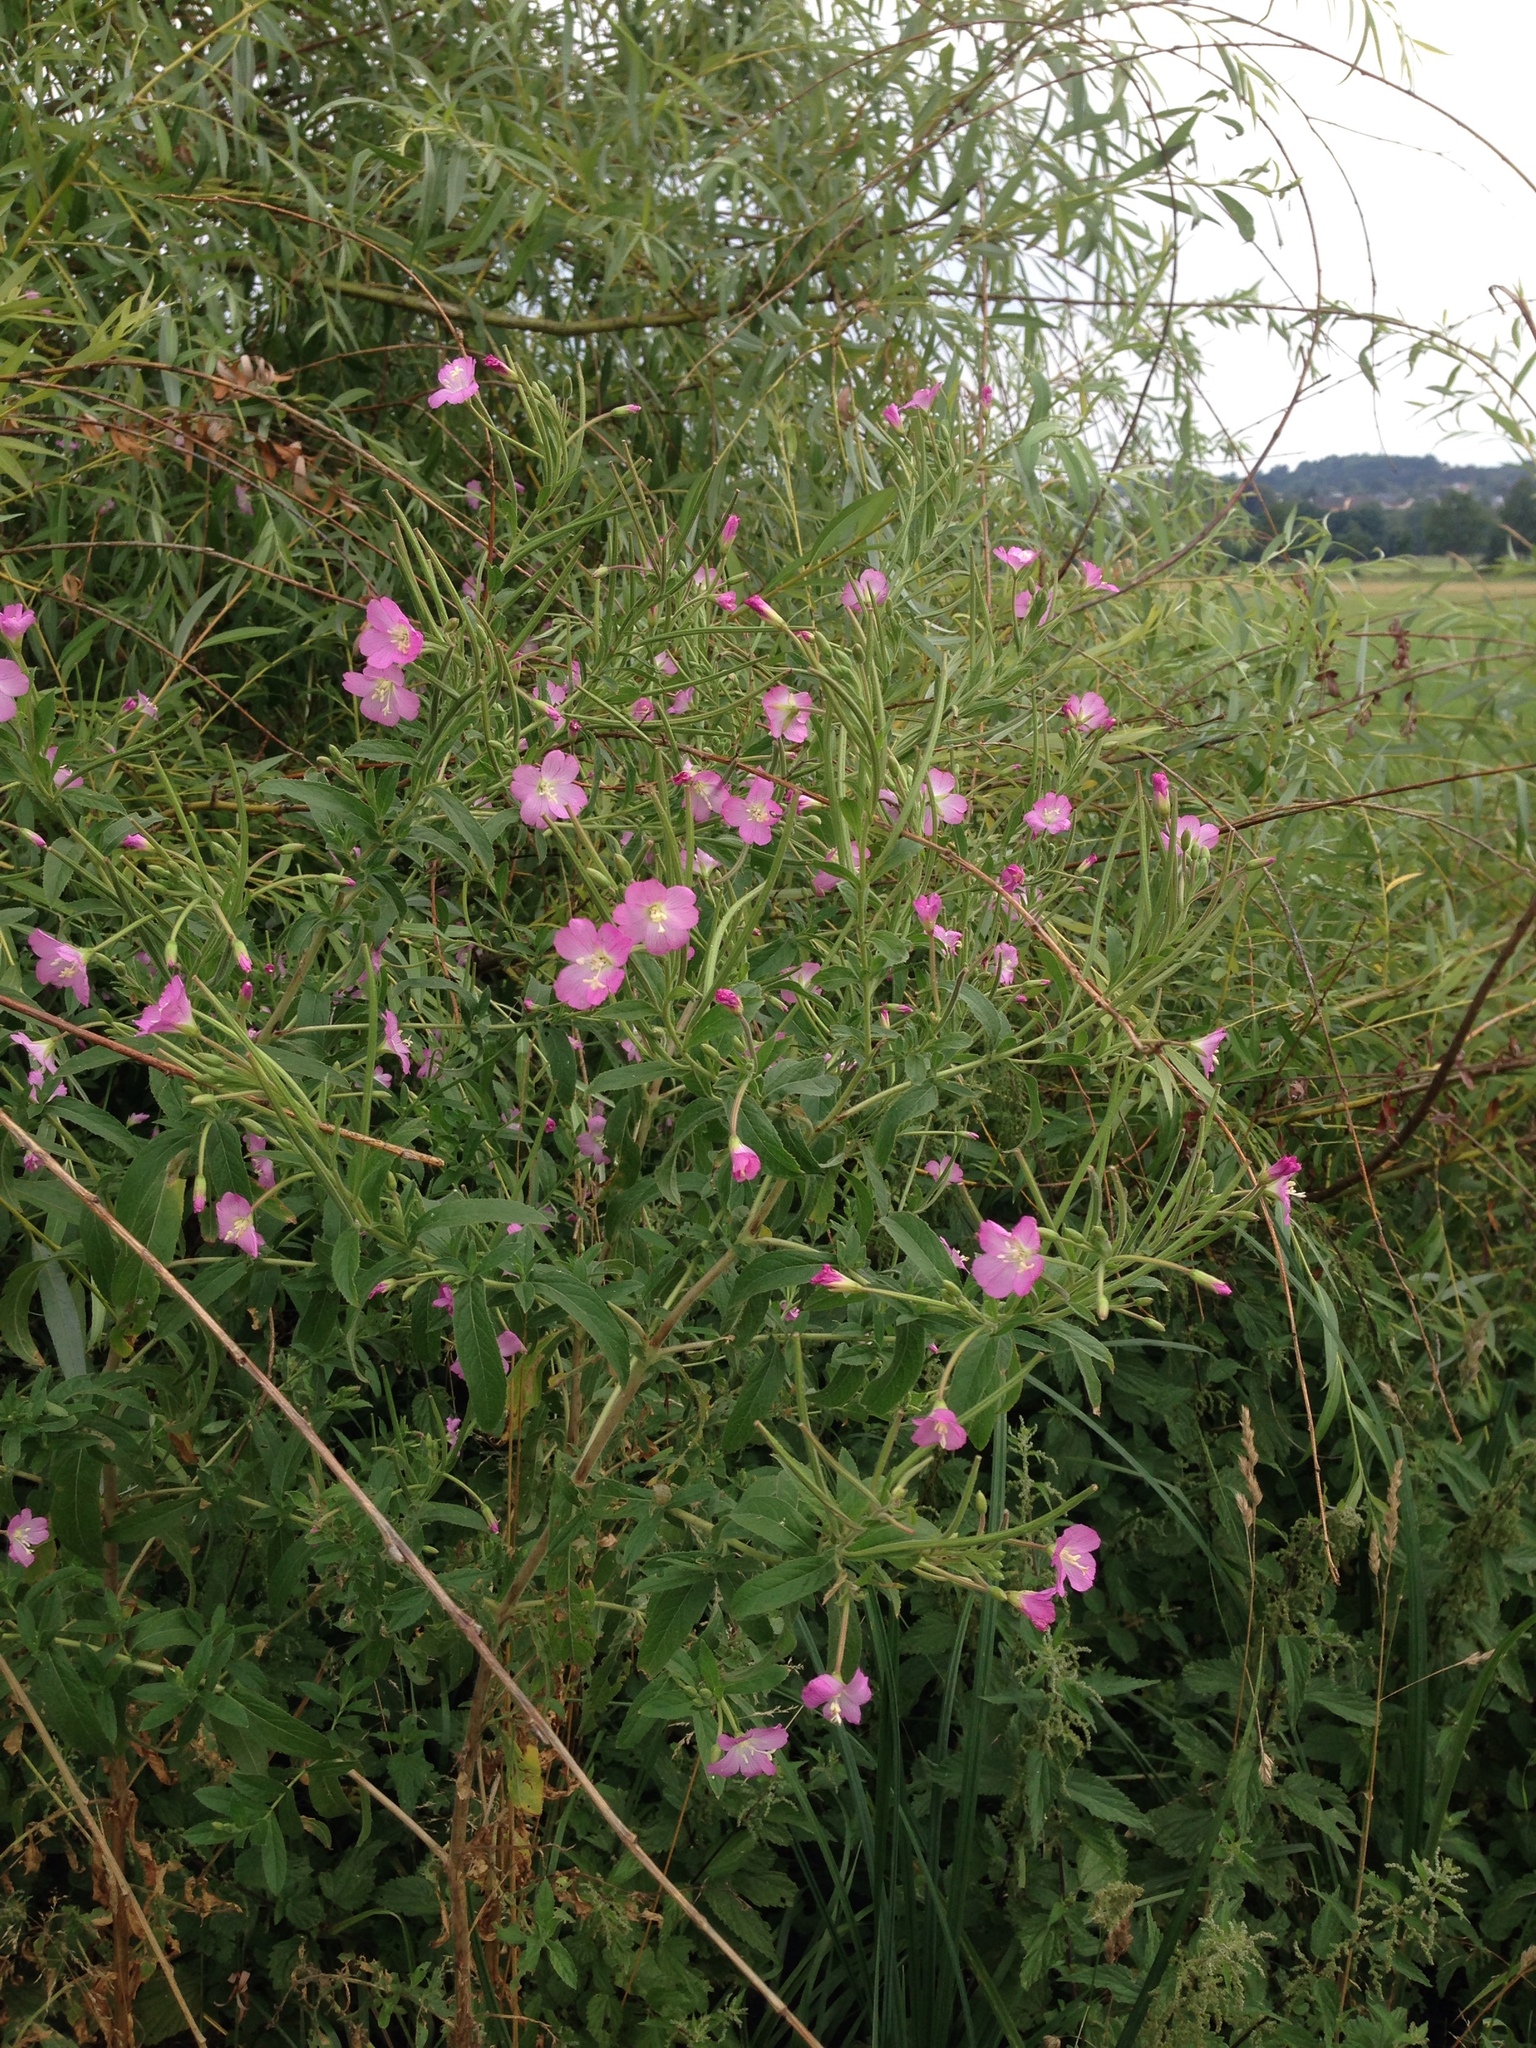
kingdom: Plantae
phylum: Tracheophyta
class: Magnoliopsida
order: Myrtales
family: Onagraceae
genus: Epilobium
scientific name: Epilobium hirsutum
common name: Great willowherb
